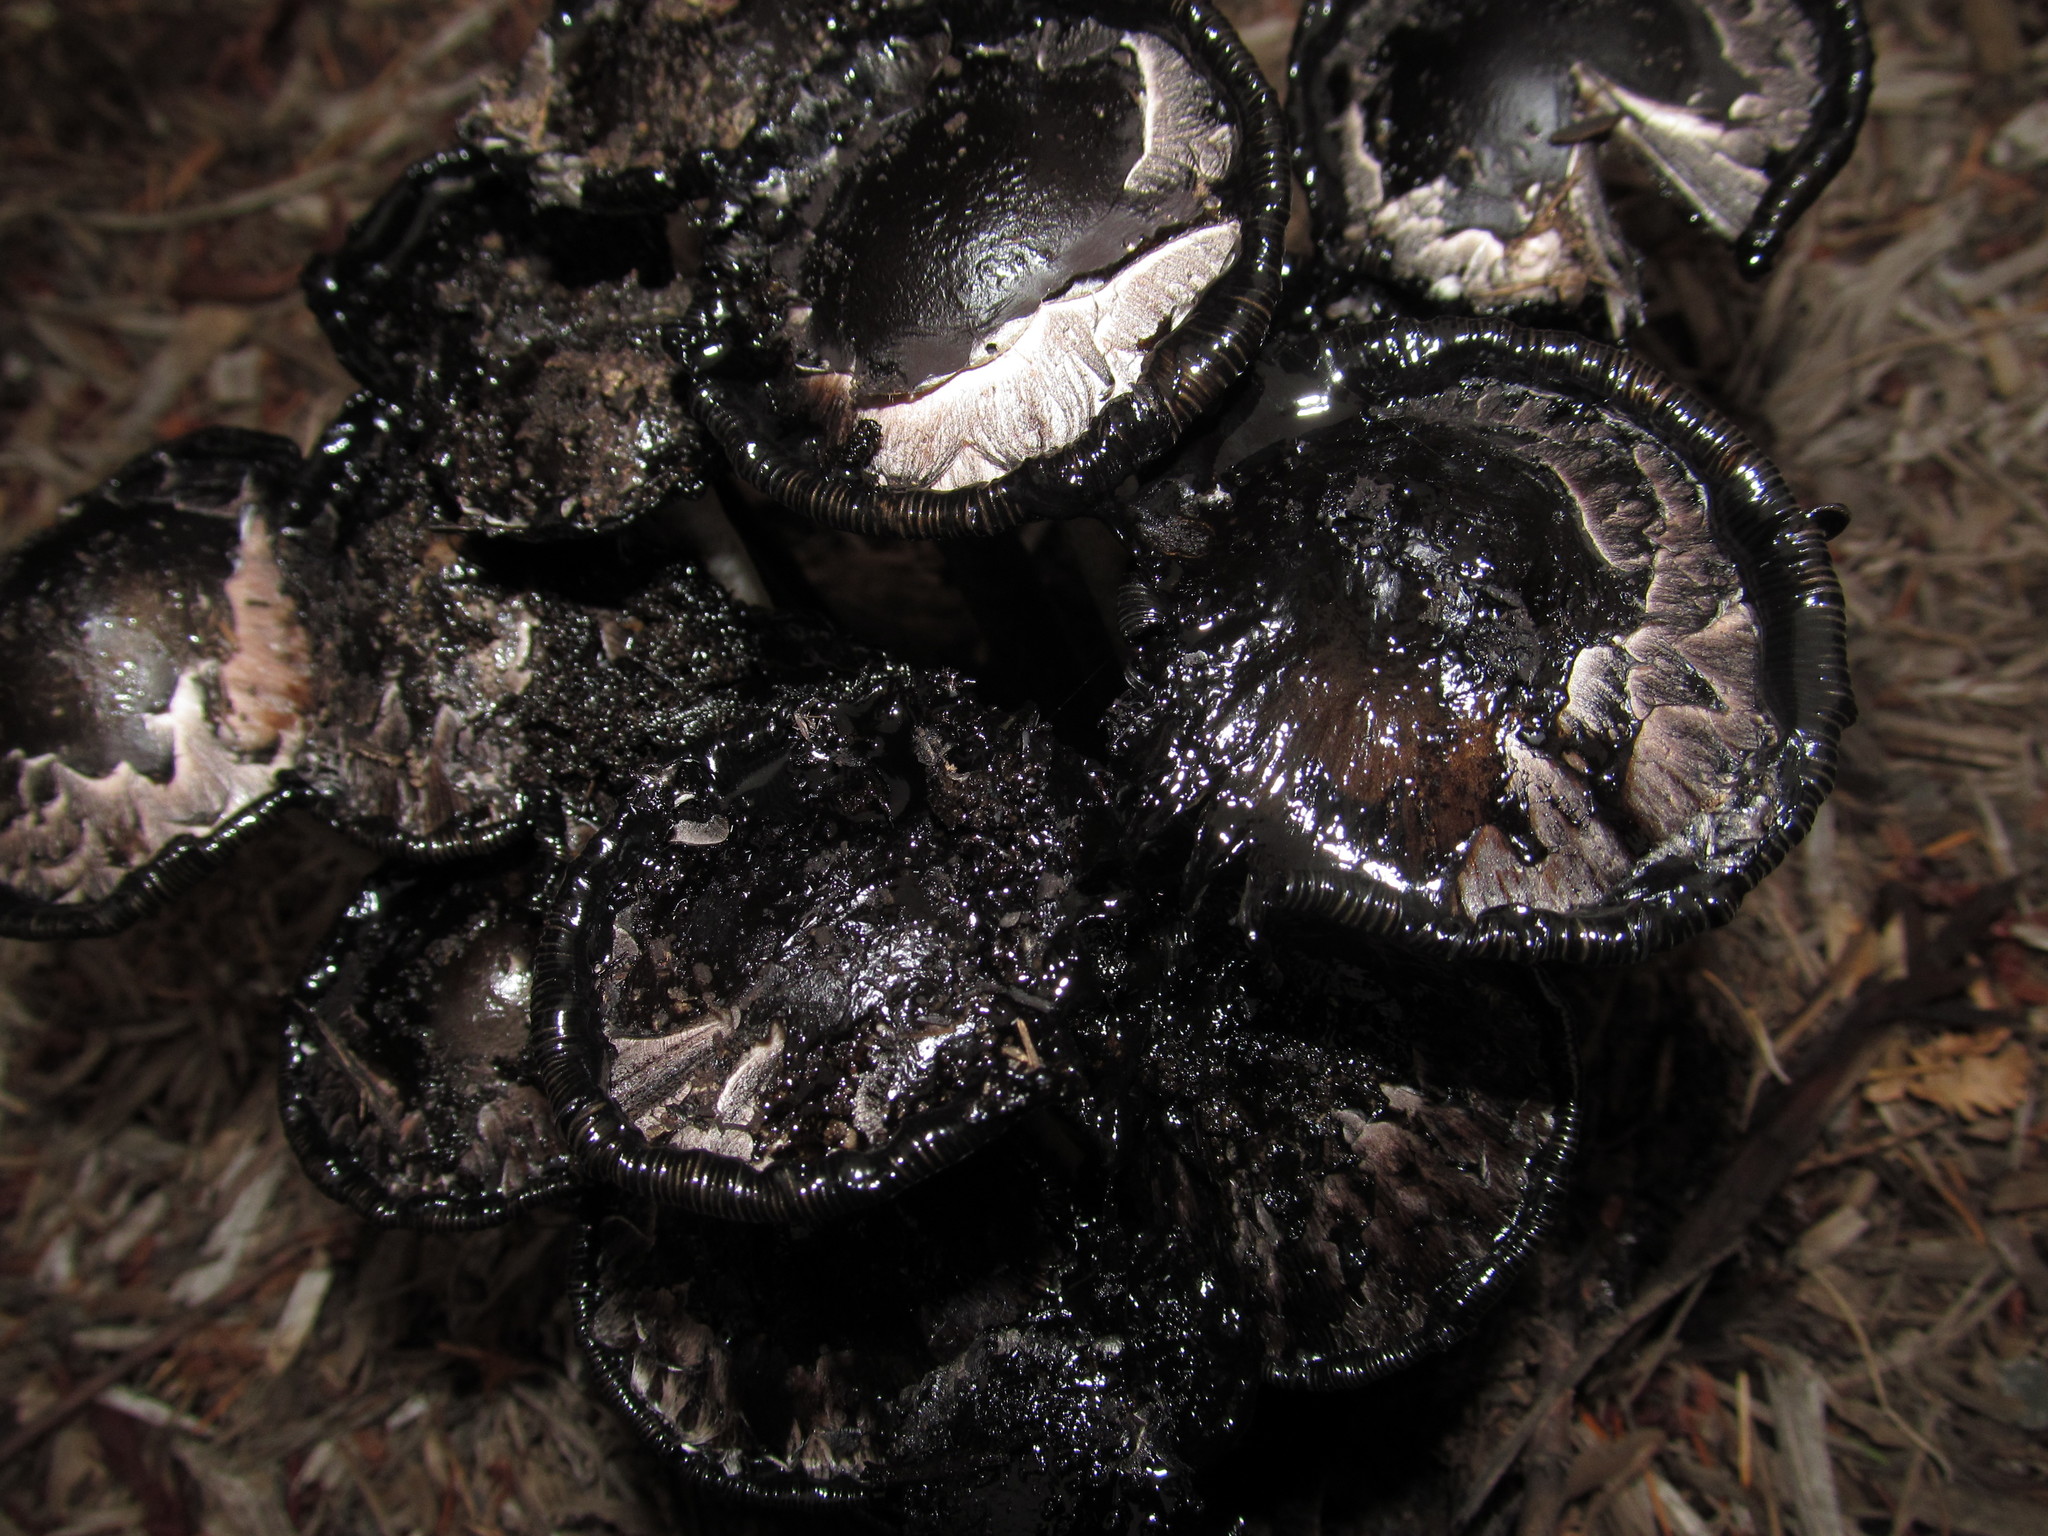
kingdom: Fungi
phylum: Basidiomycota
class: Agaricomycetes
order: Agaricales
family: Agaricaceae
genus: Coprinus
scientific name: Coprinus comatus
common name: Lawyer's wig
